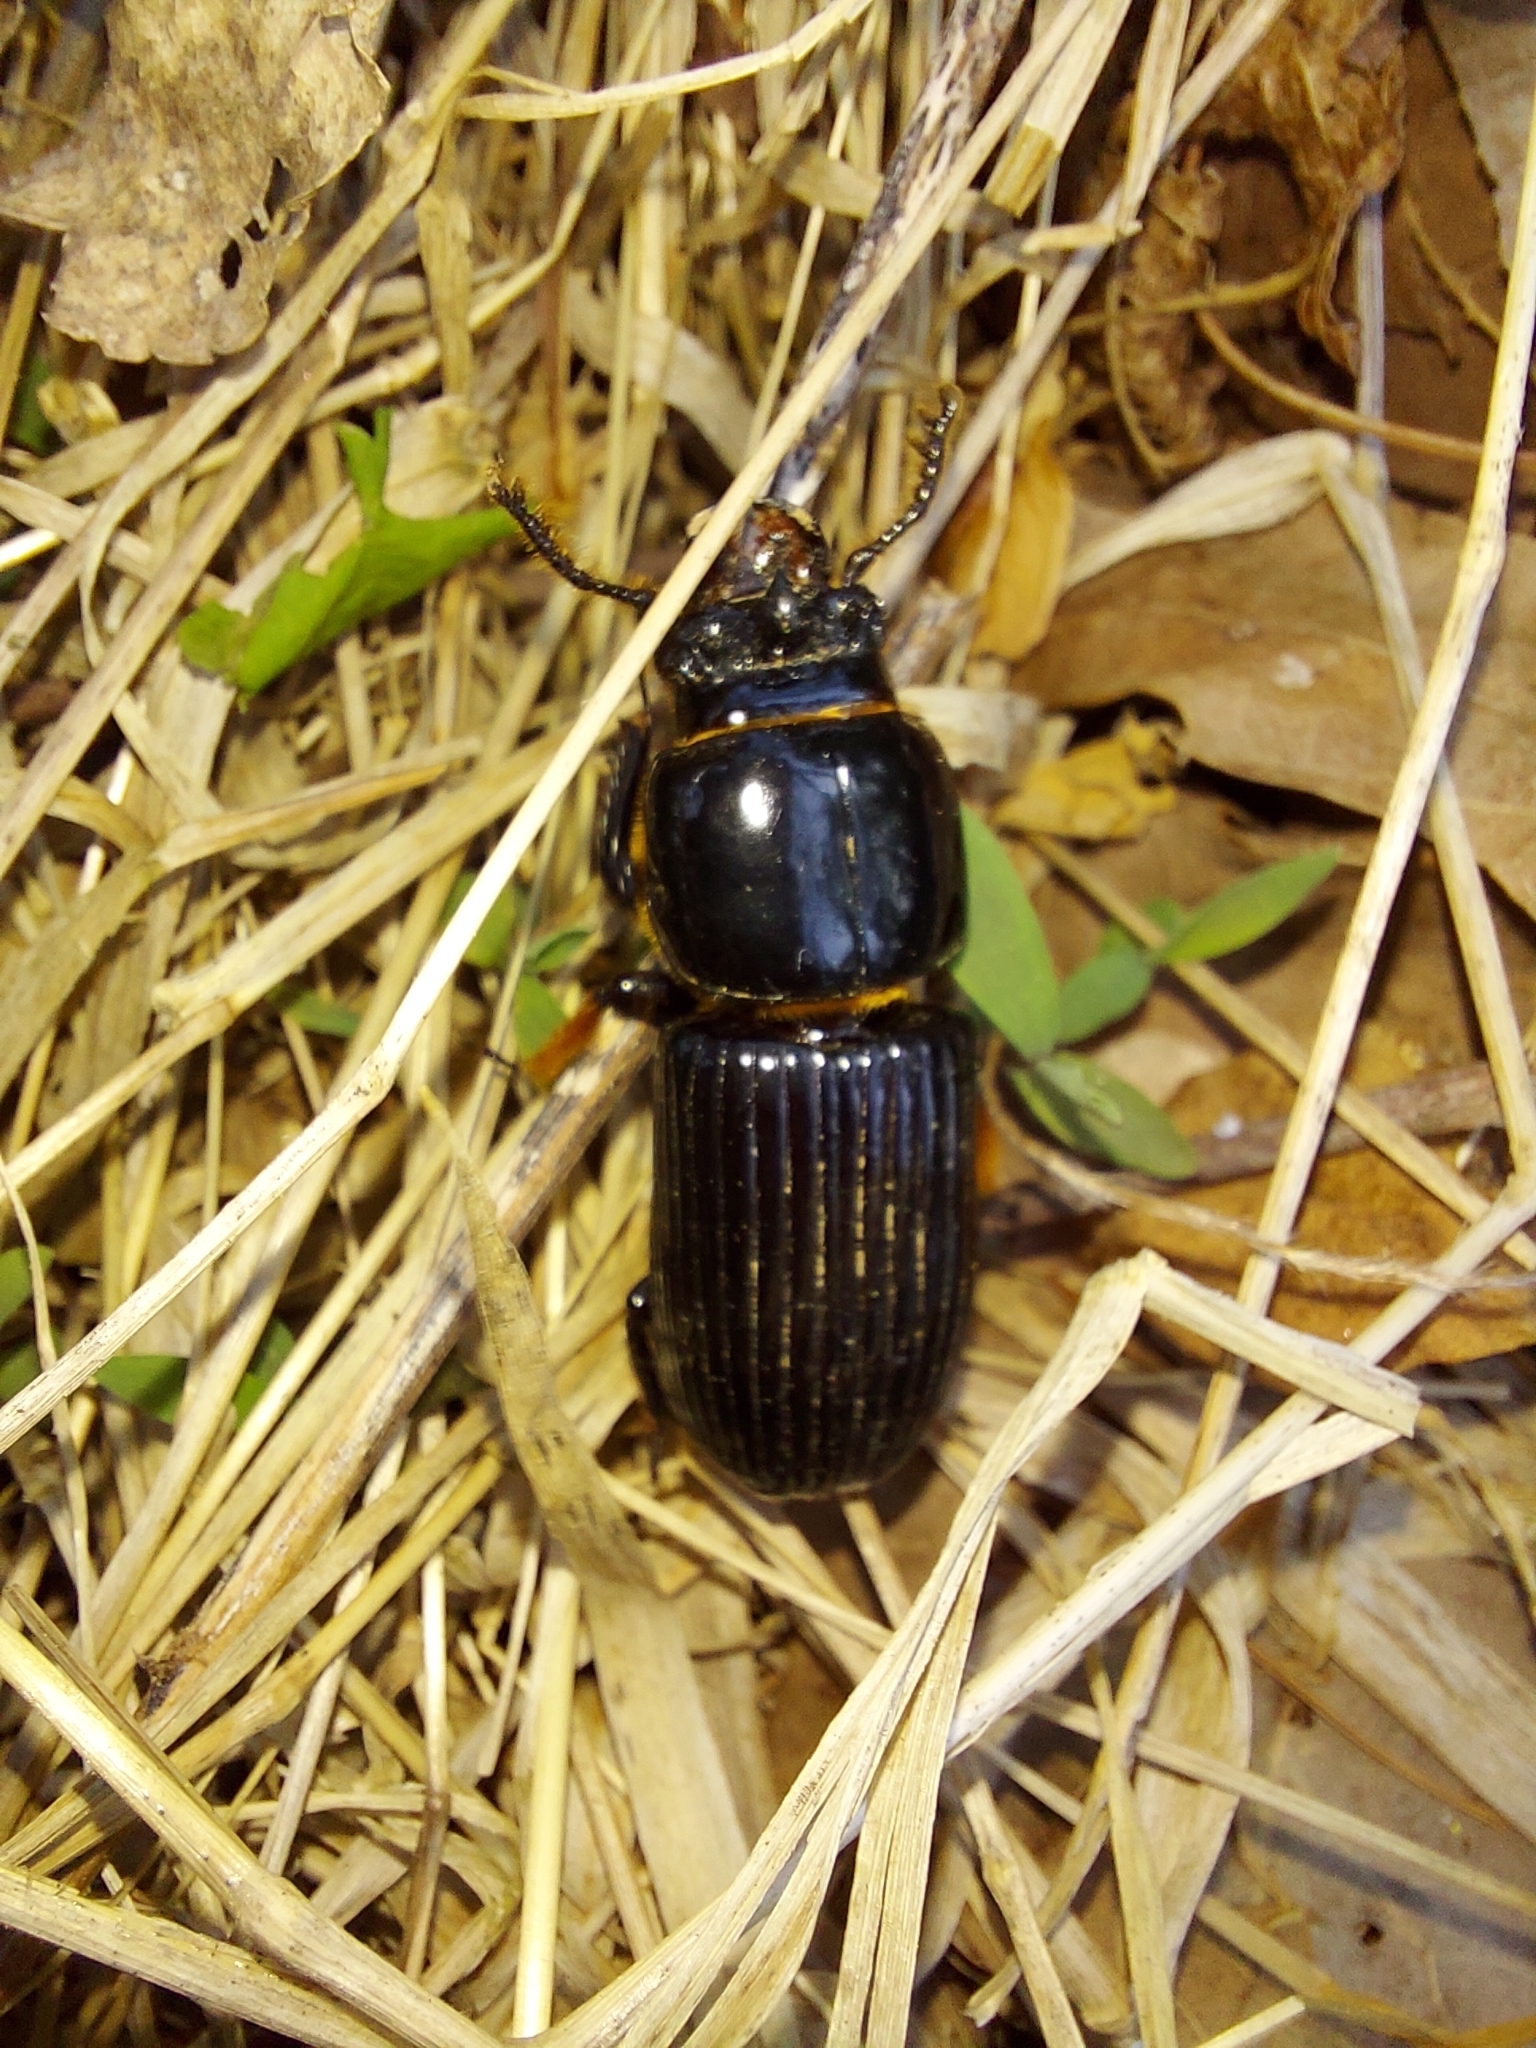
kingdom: Animalia
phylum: Arthropoda
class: Insecta
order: Coleoptera
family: Passalidae
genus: Odontotaenius
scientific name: Odontotaenius disjunctus
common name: Patent leather beetle
